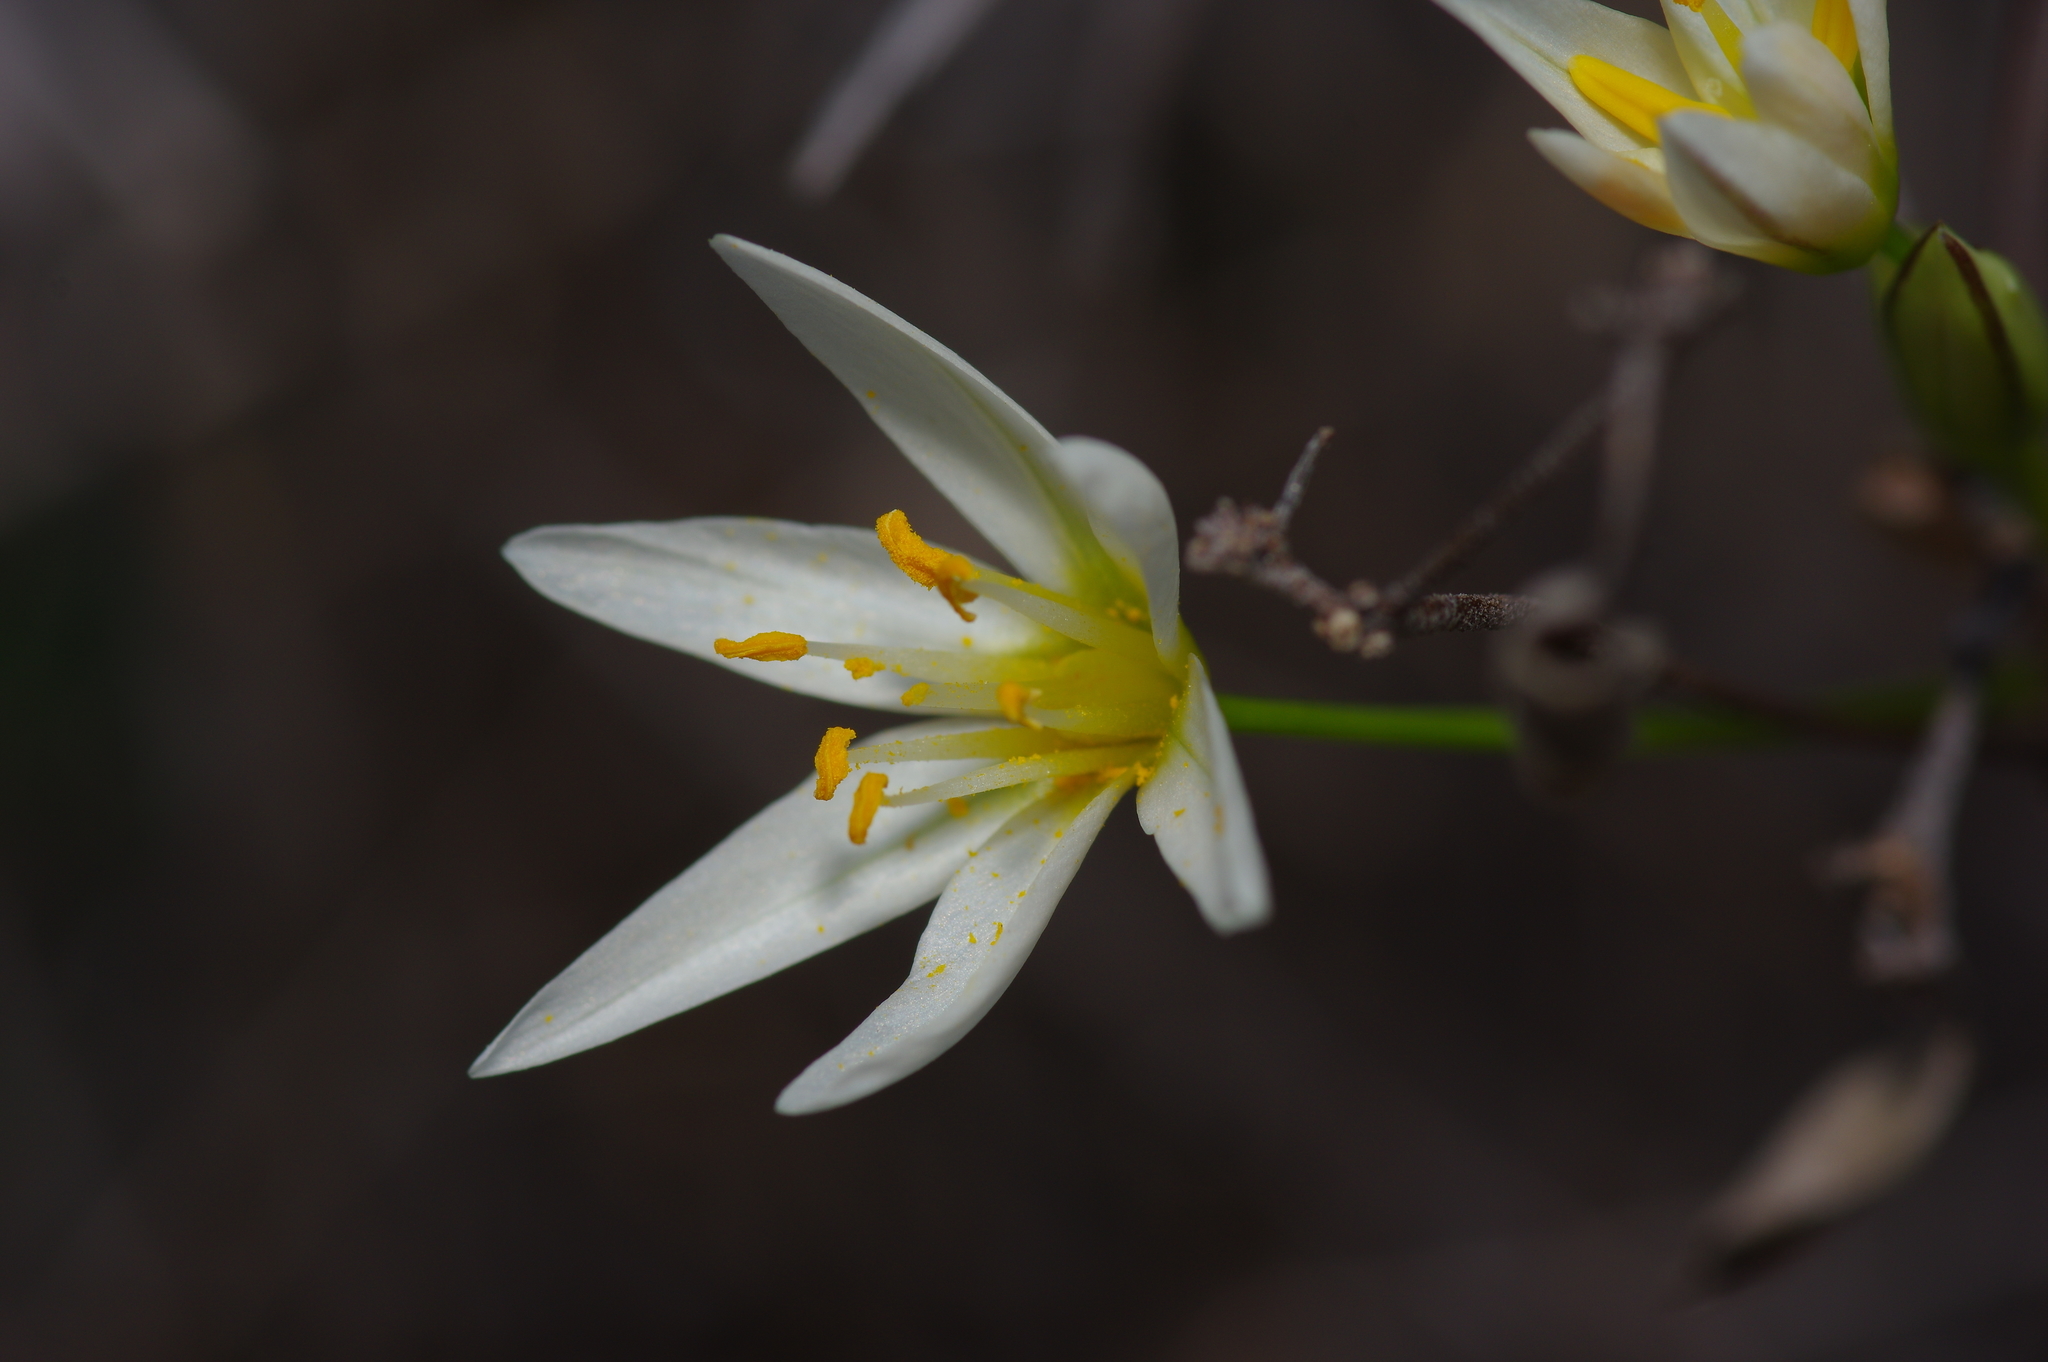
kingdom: Plantae
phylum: Tracheophyta
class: Liliopsida
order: Asparagales
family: Amaryllidaceae
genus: Nothoscordum
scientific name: Nothoscordum bivalve
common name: Crow-poison
